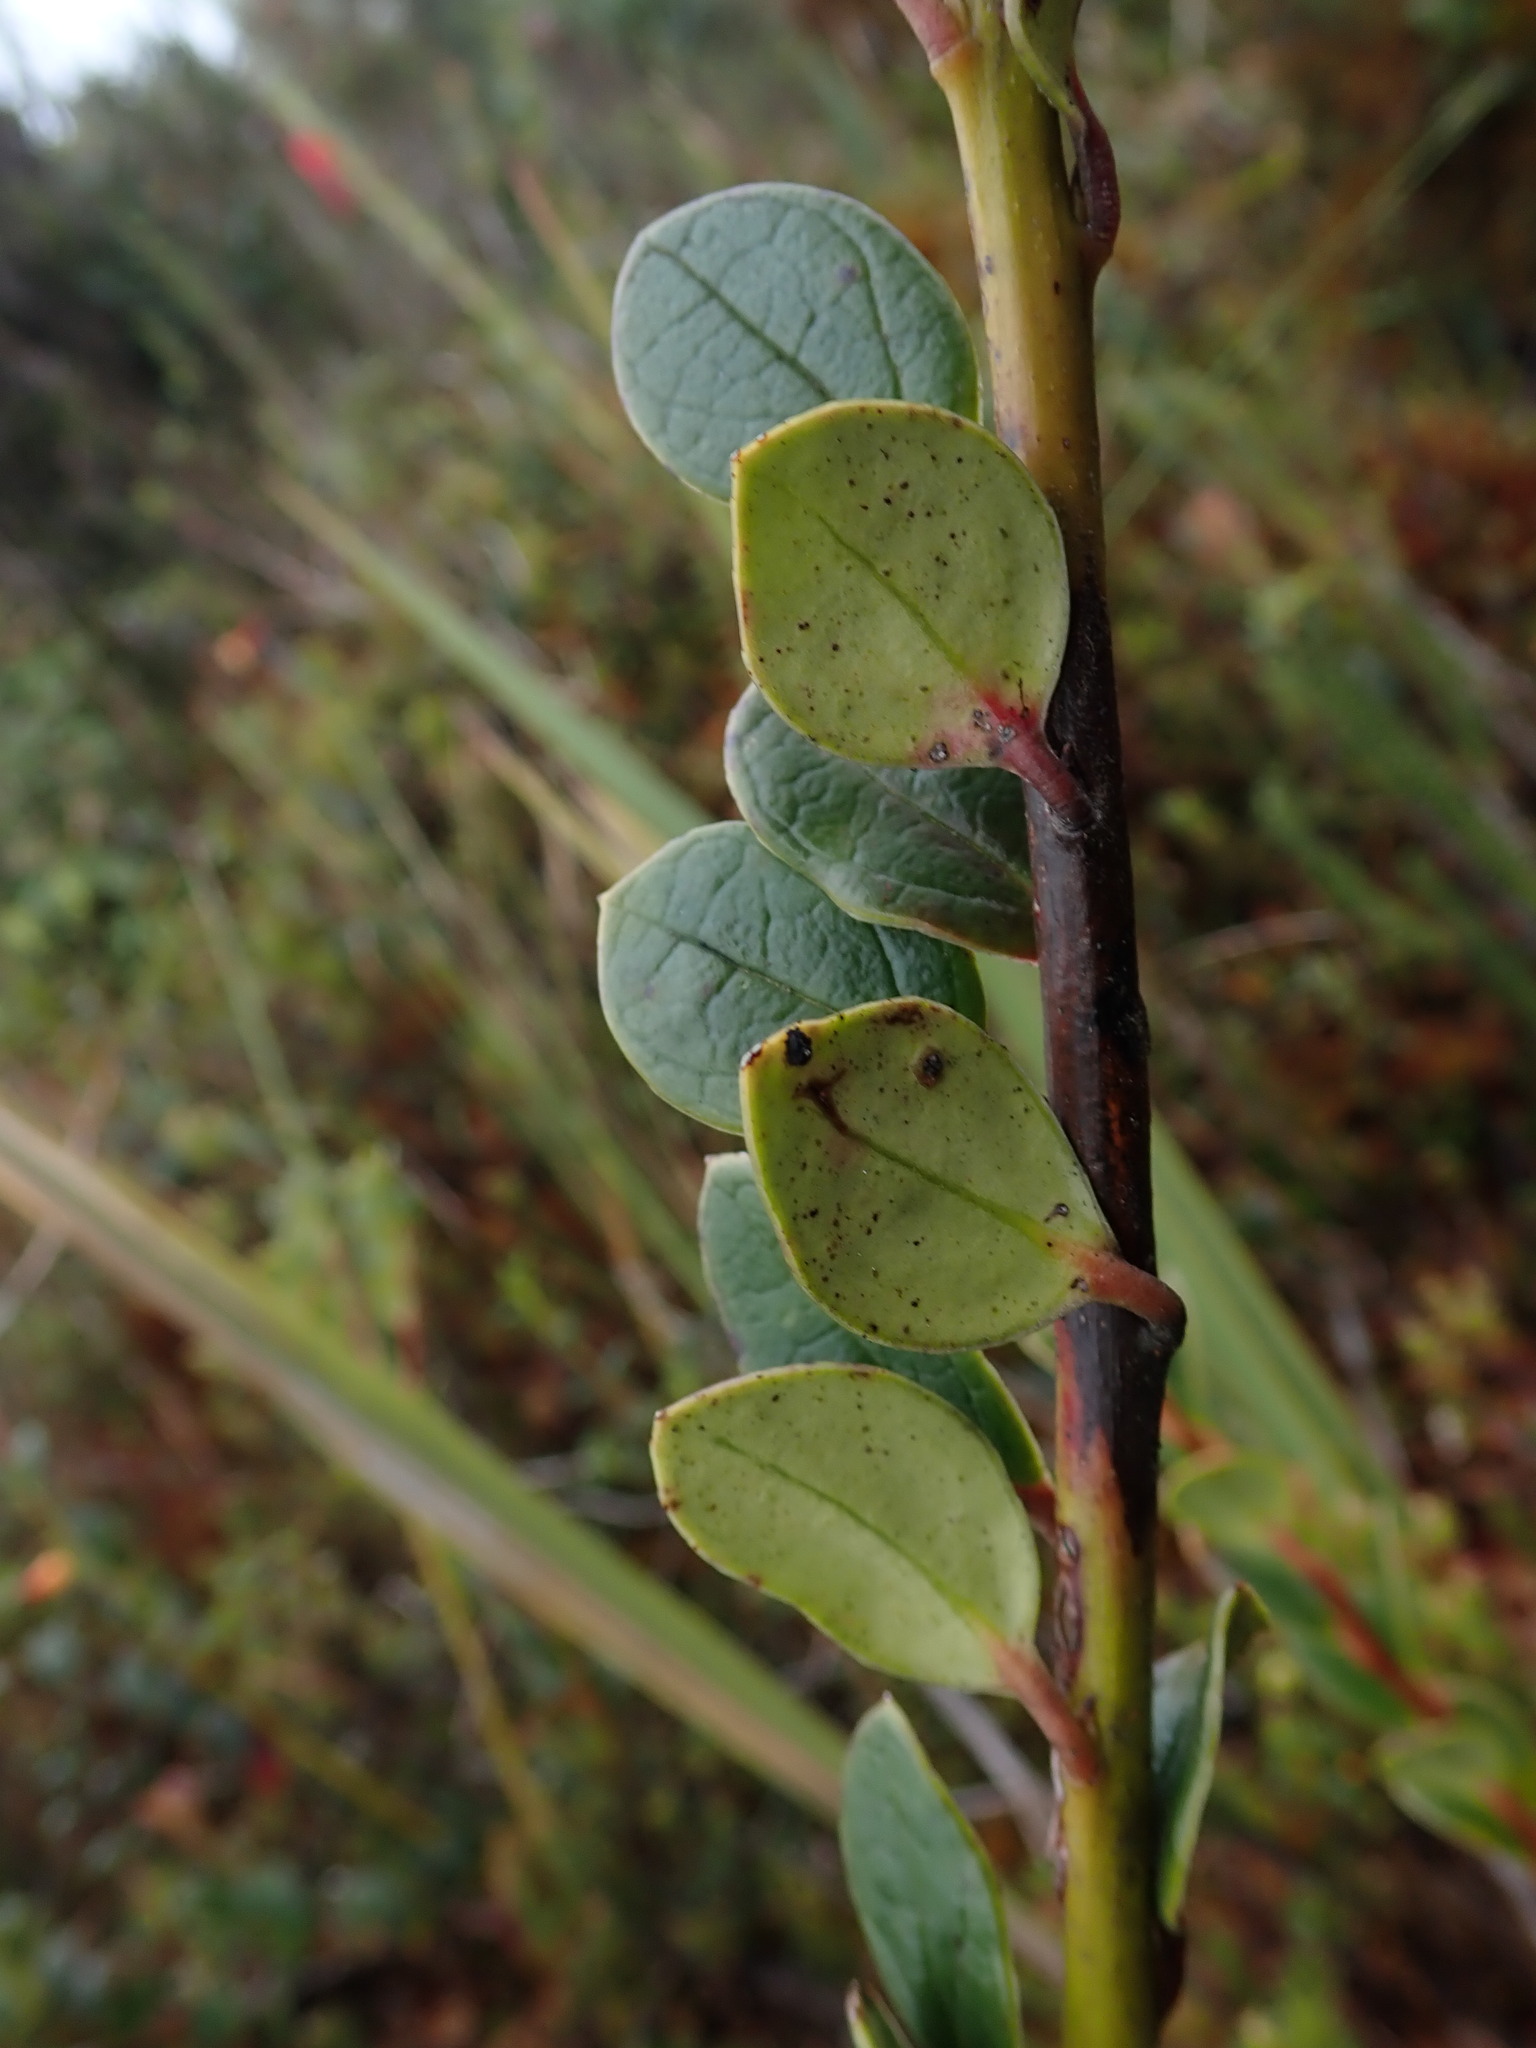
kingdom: Plantae
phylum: Tracheophyta
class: Magnoliopsida
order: Ericales
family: Ericaceae
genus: Ceratostema
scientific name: Ceratostema alatum
